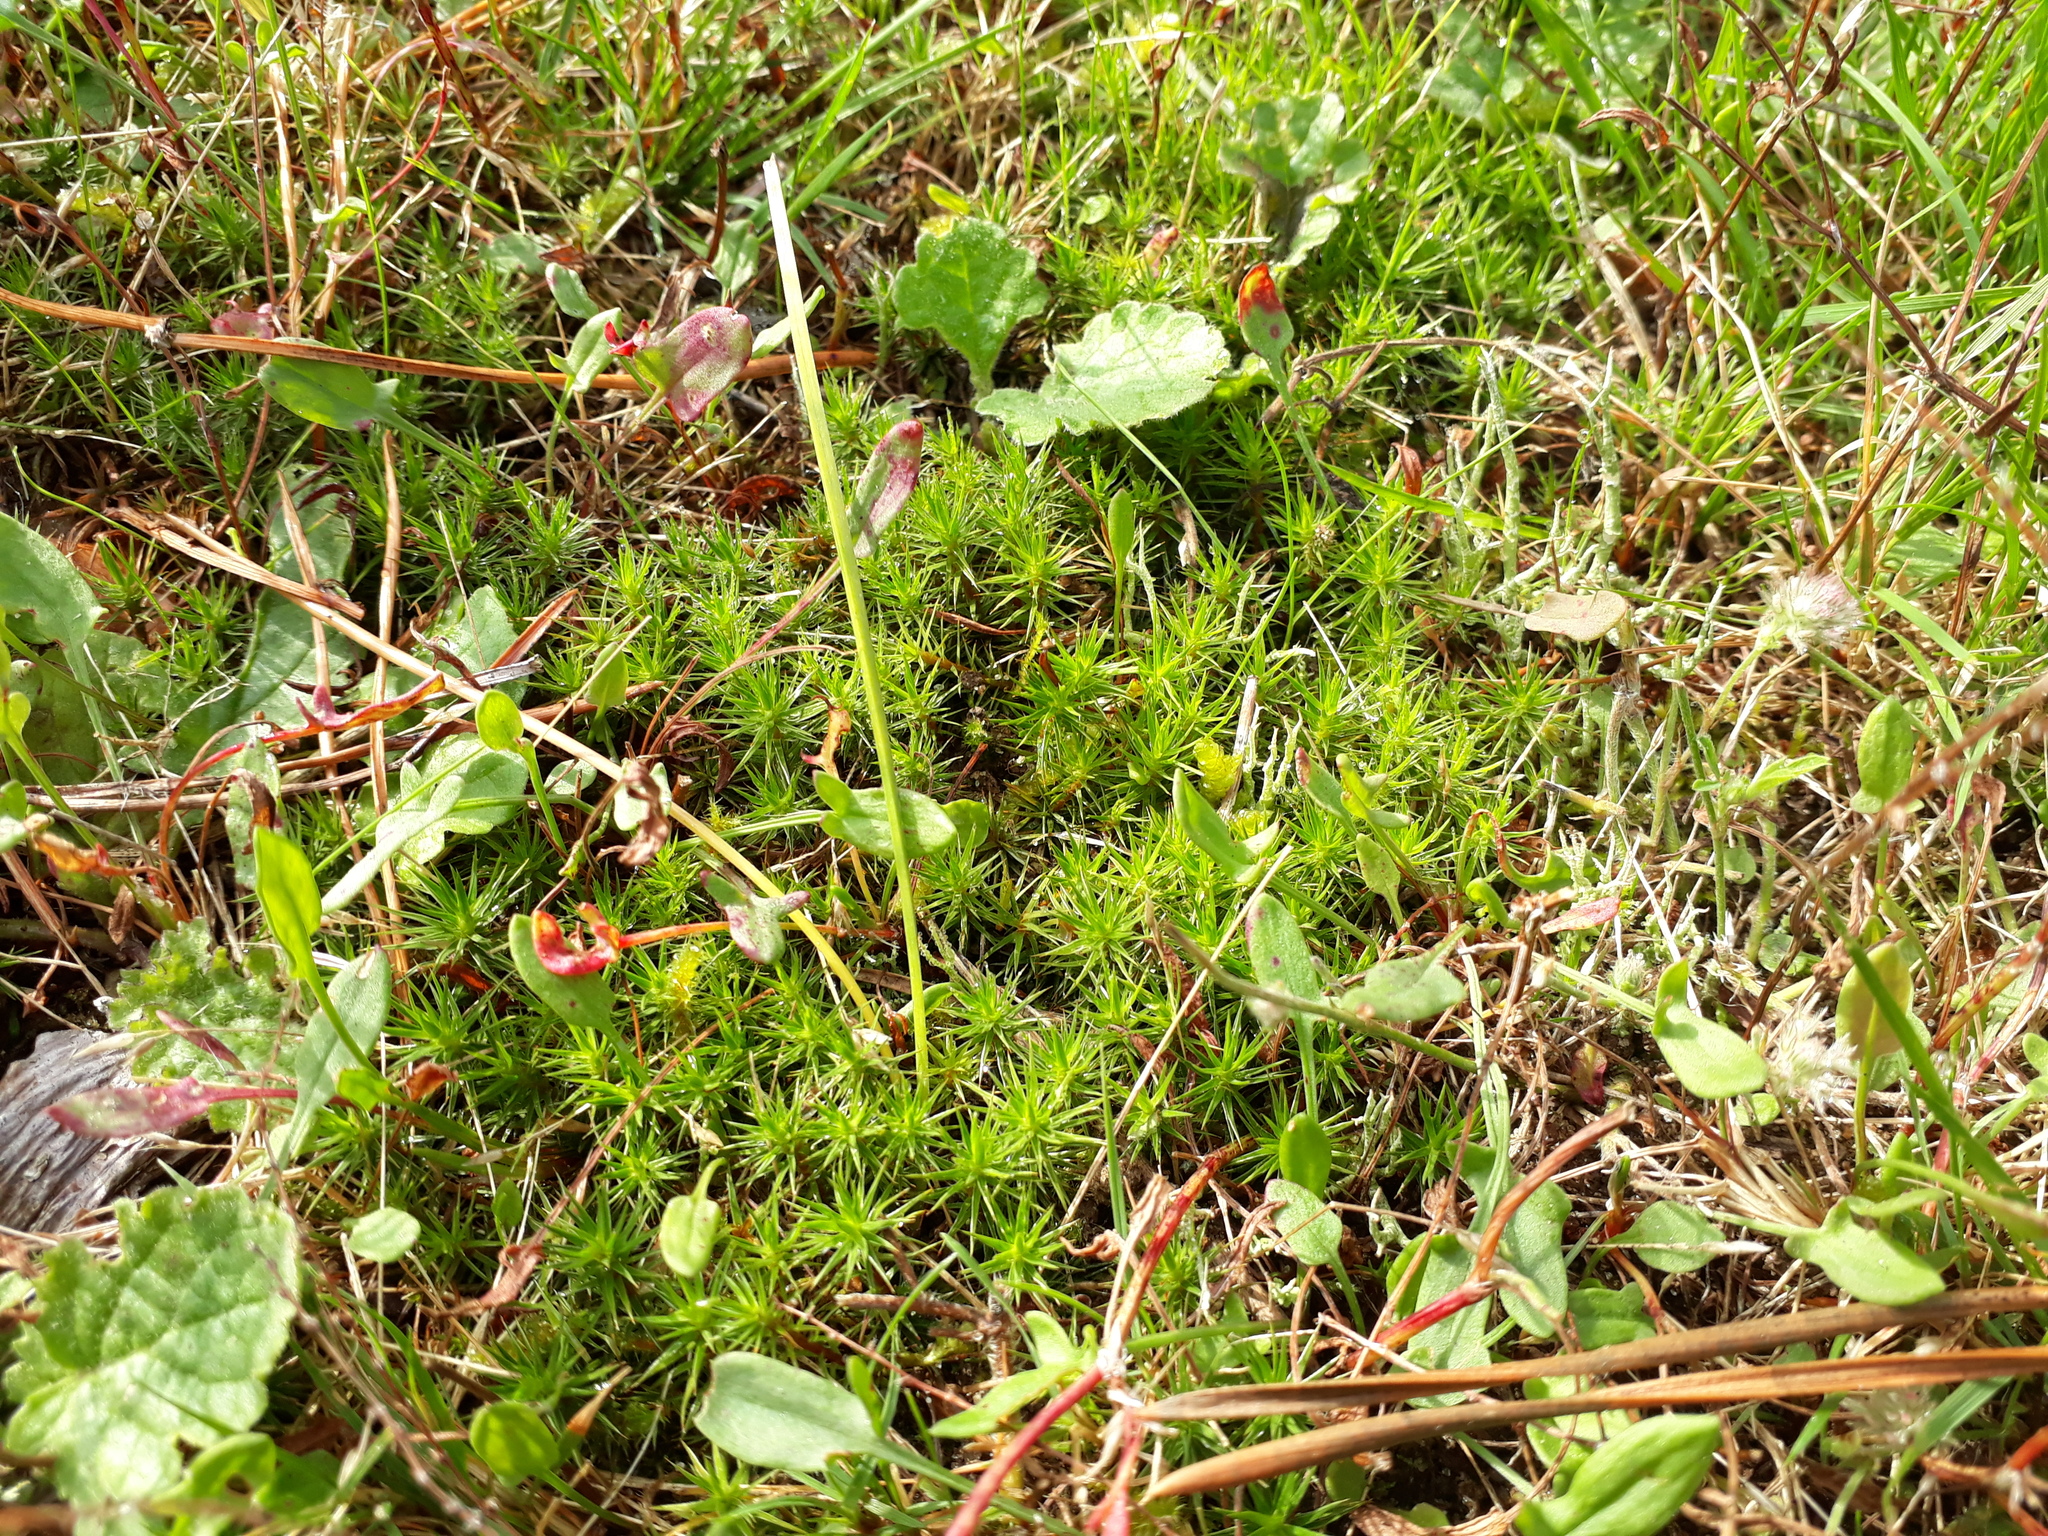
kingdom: Plantae
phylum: Bryophyta
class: Polytrichopsida
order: Polytrichales
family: Polytrichaceae
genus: Polytrichum
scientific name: Polytrichum juniperinum
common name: Juniper haircap moss
